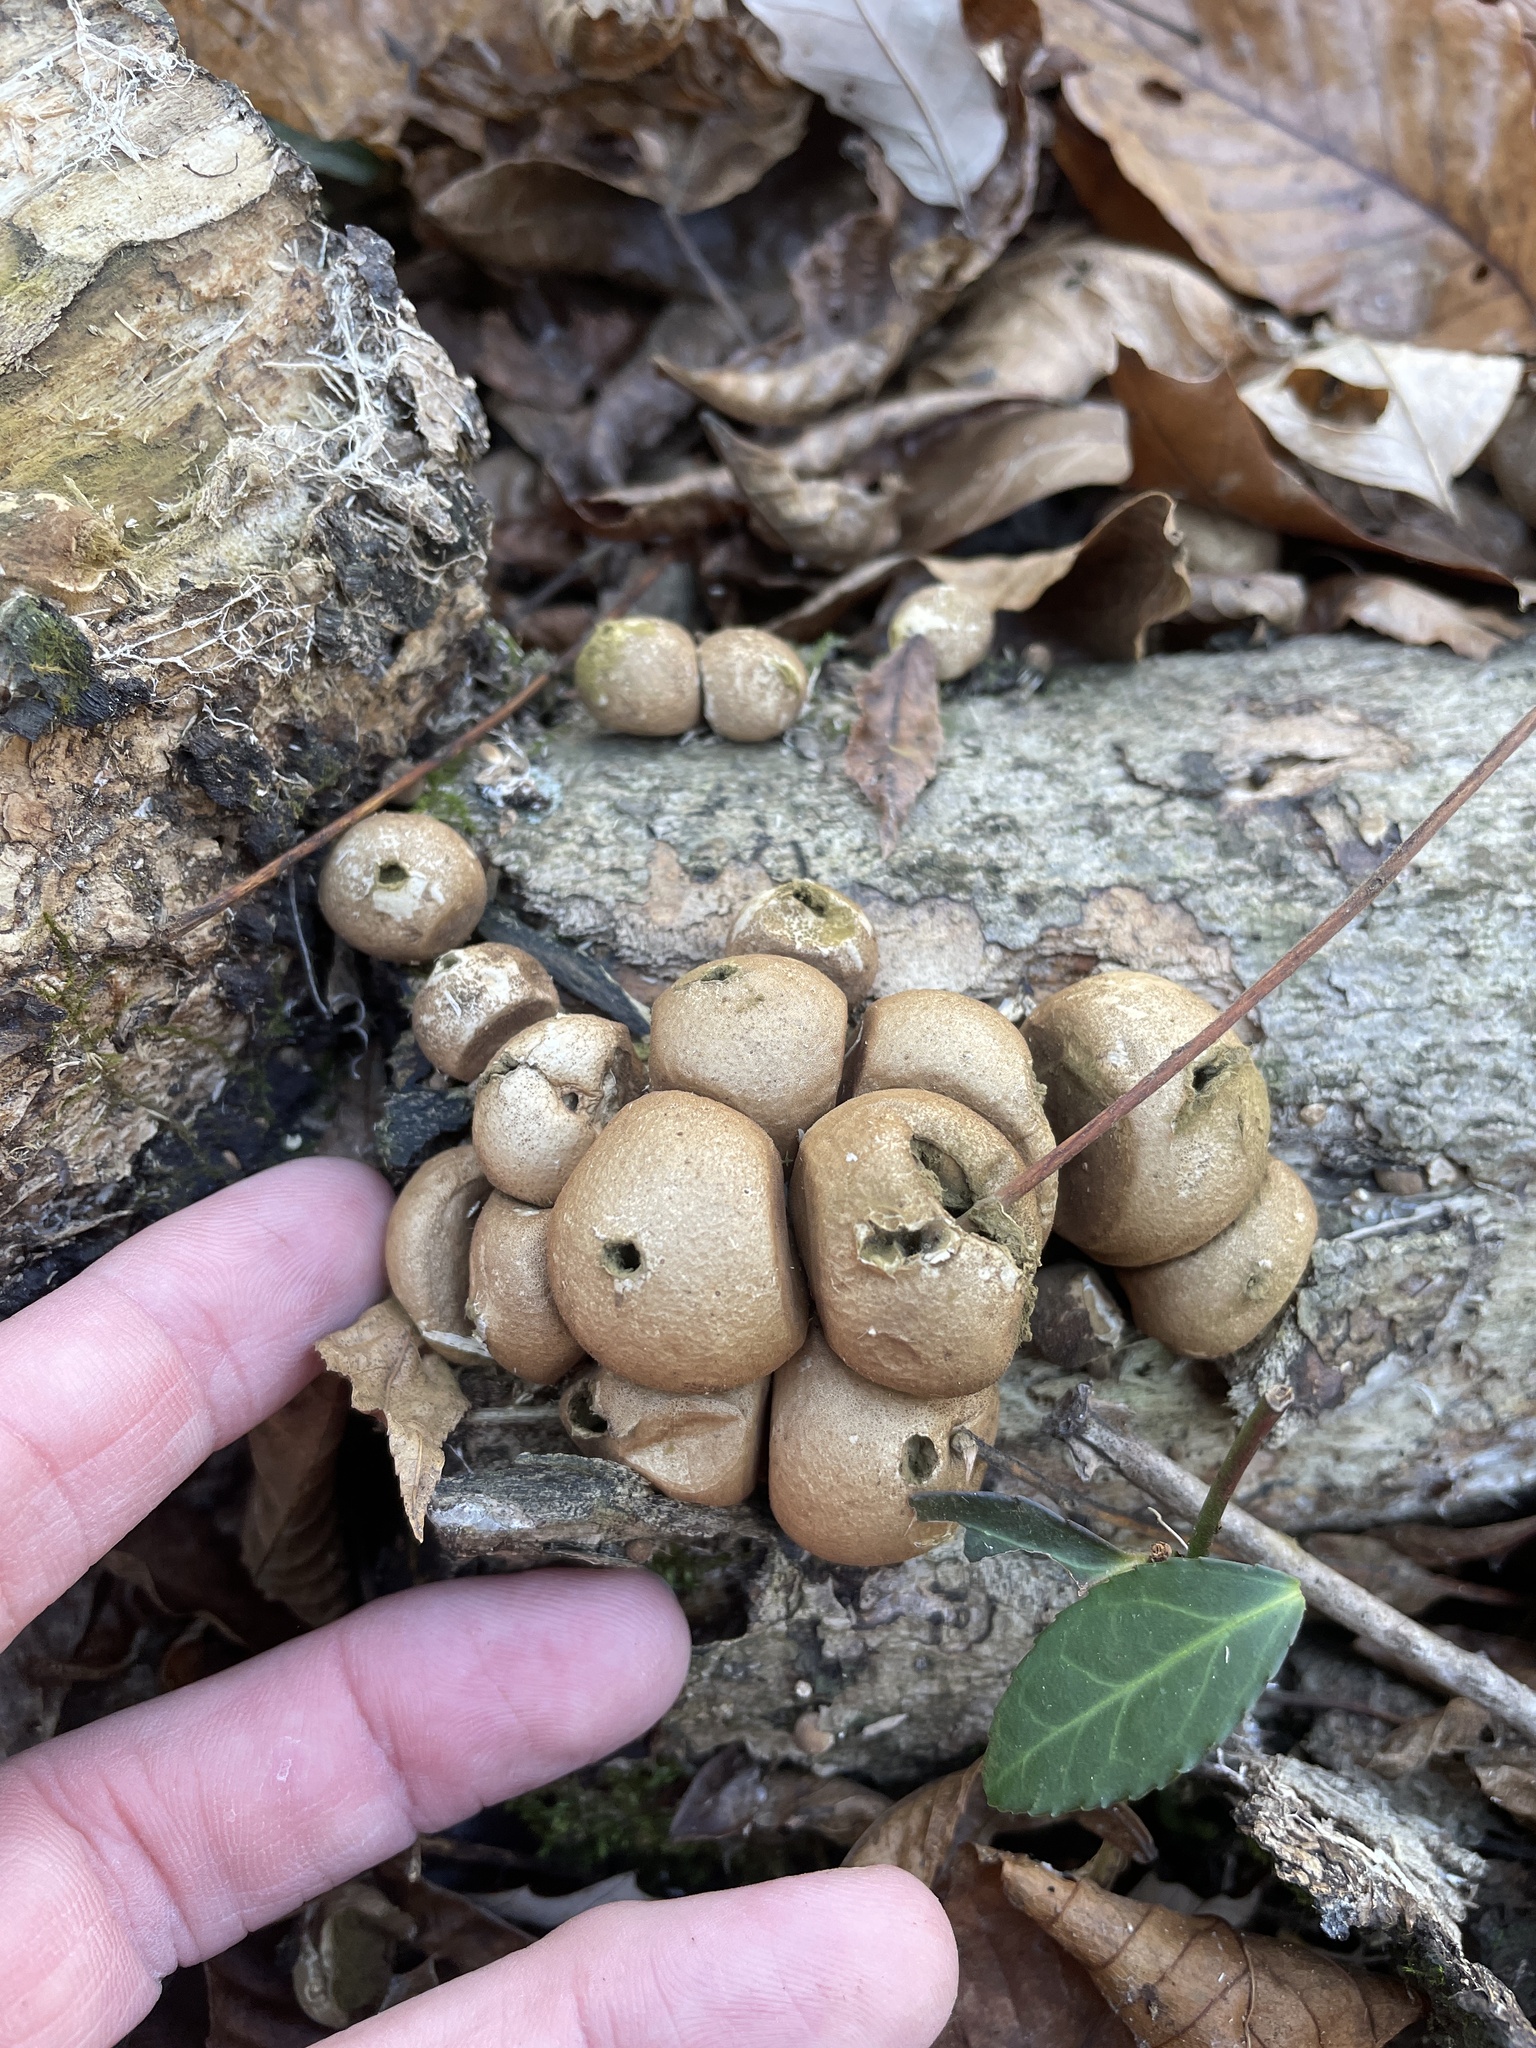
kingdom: Fungi
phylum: Basidiomycota
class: Agaricomycetes
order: Agaricales
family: Lycoperdaceae
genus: Apioperdon
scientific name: Apioperdon pyriforme
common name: Pear-shaped puffball
